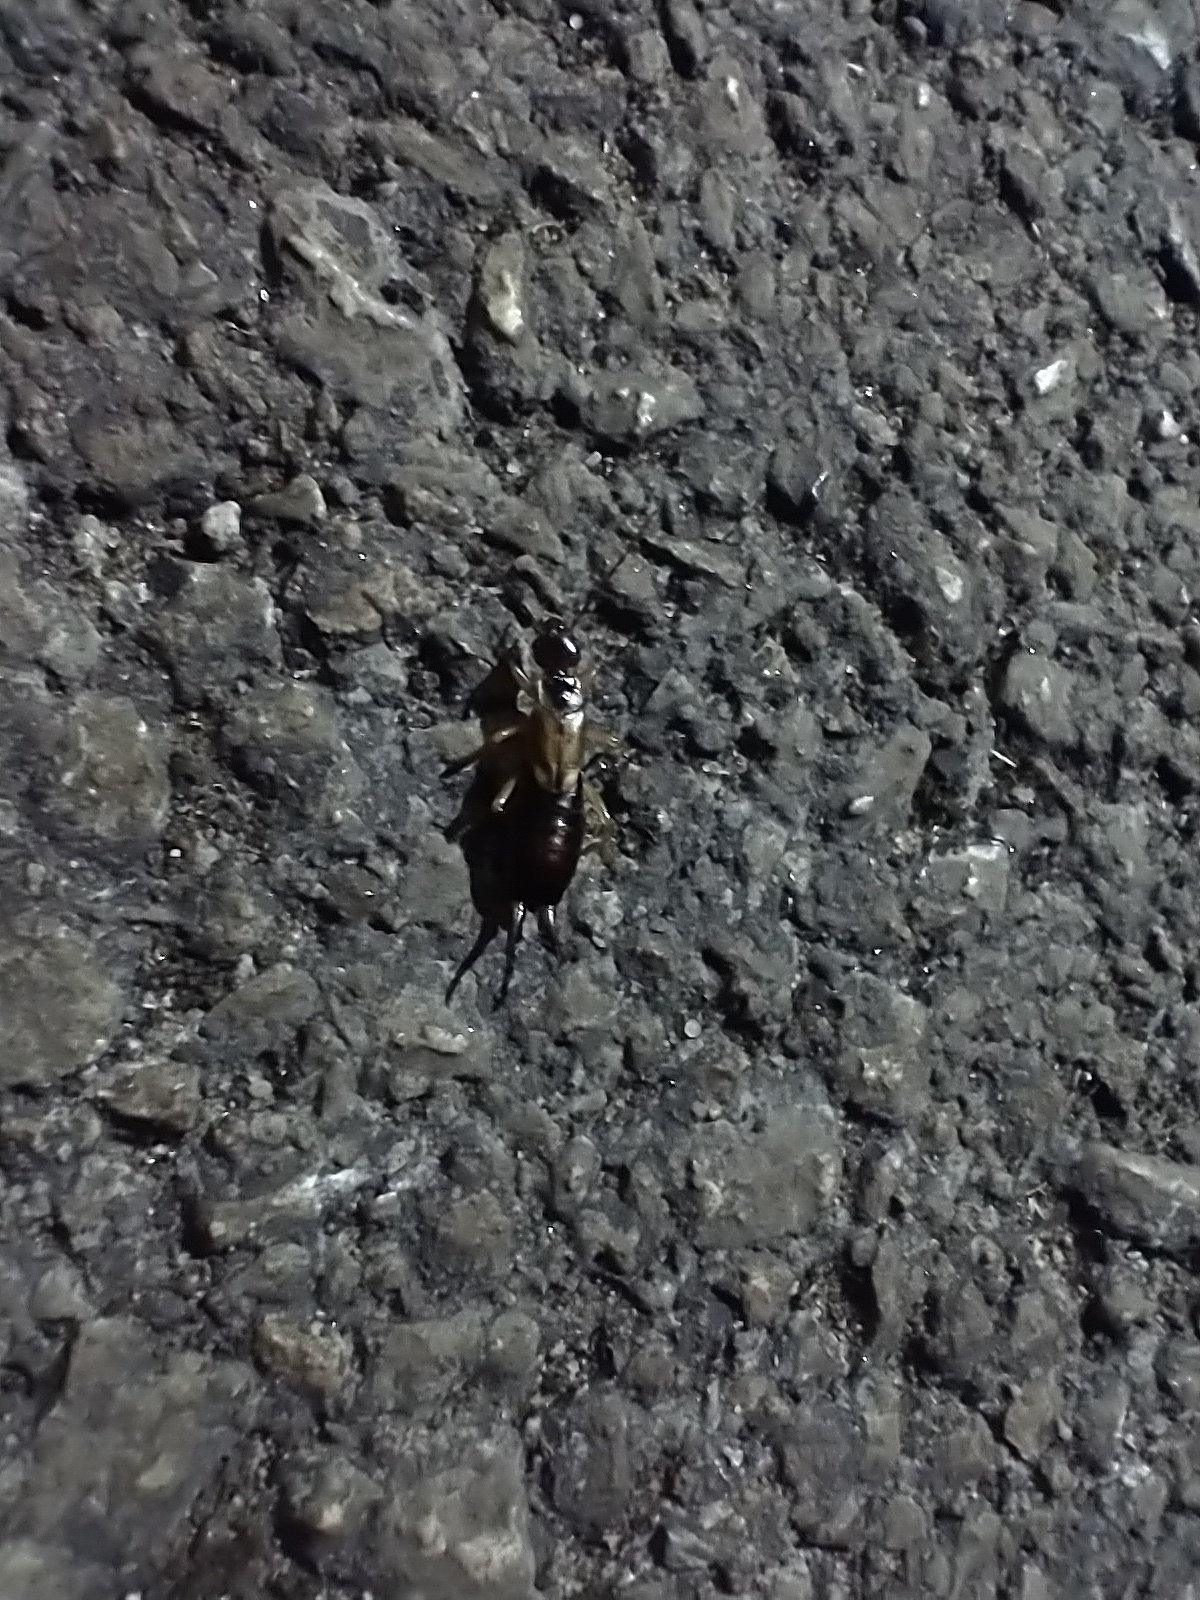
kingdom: Animalia
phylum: Arthropoda
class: Insecta
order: Dermaptera
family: Forficulidae
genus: Forficula
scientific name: Forficula
